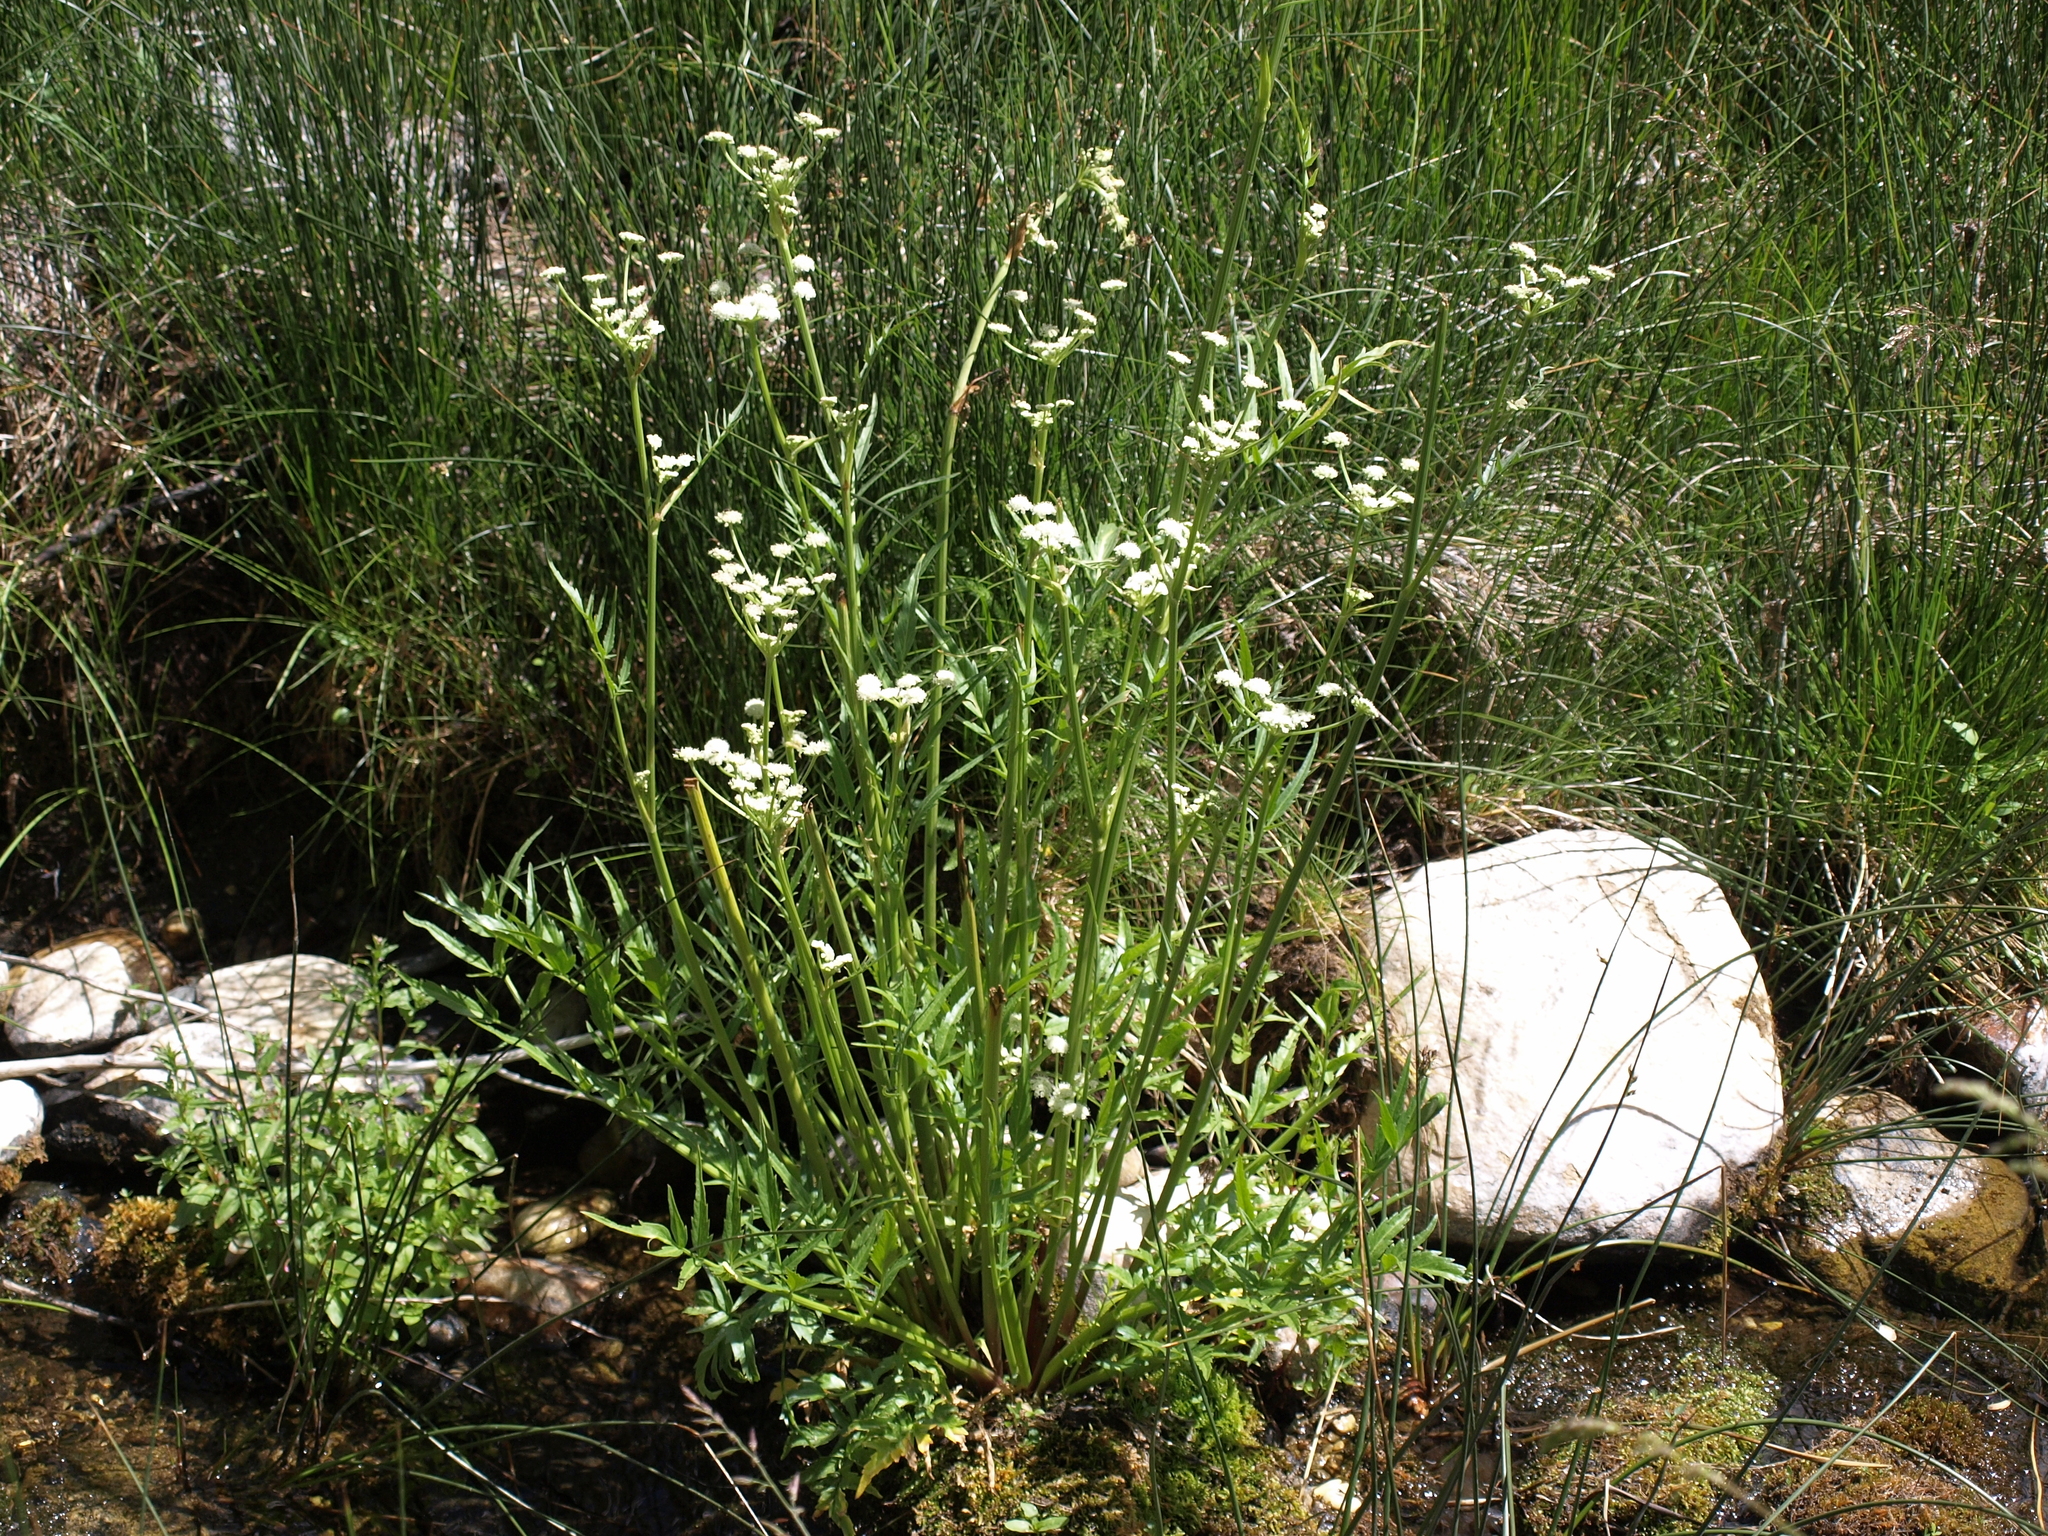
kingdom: Plantae
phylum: Tracheophyta
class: Magnoliopsida
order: Apiales
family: Apiaceae
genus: Angelica
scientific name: Angelica kingii
